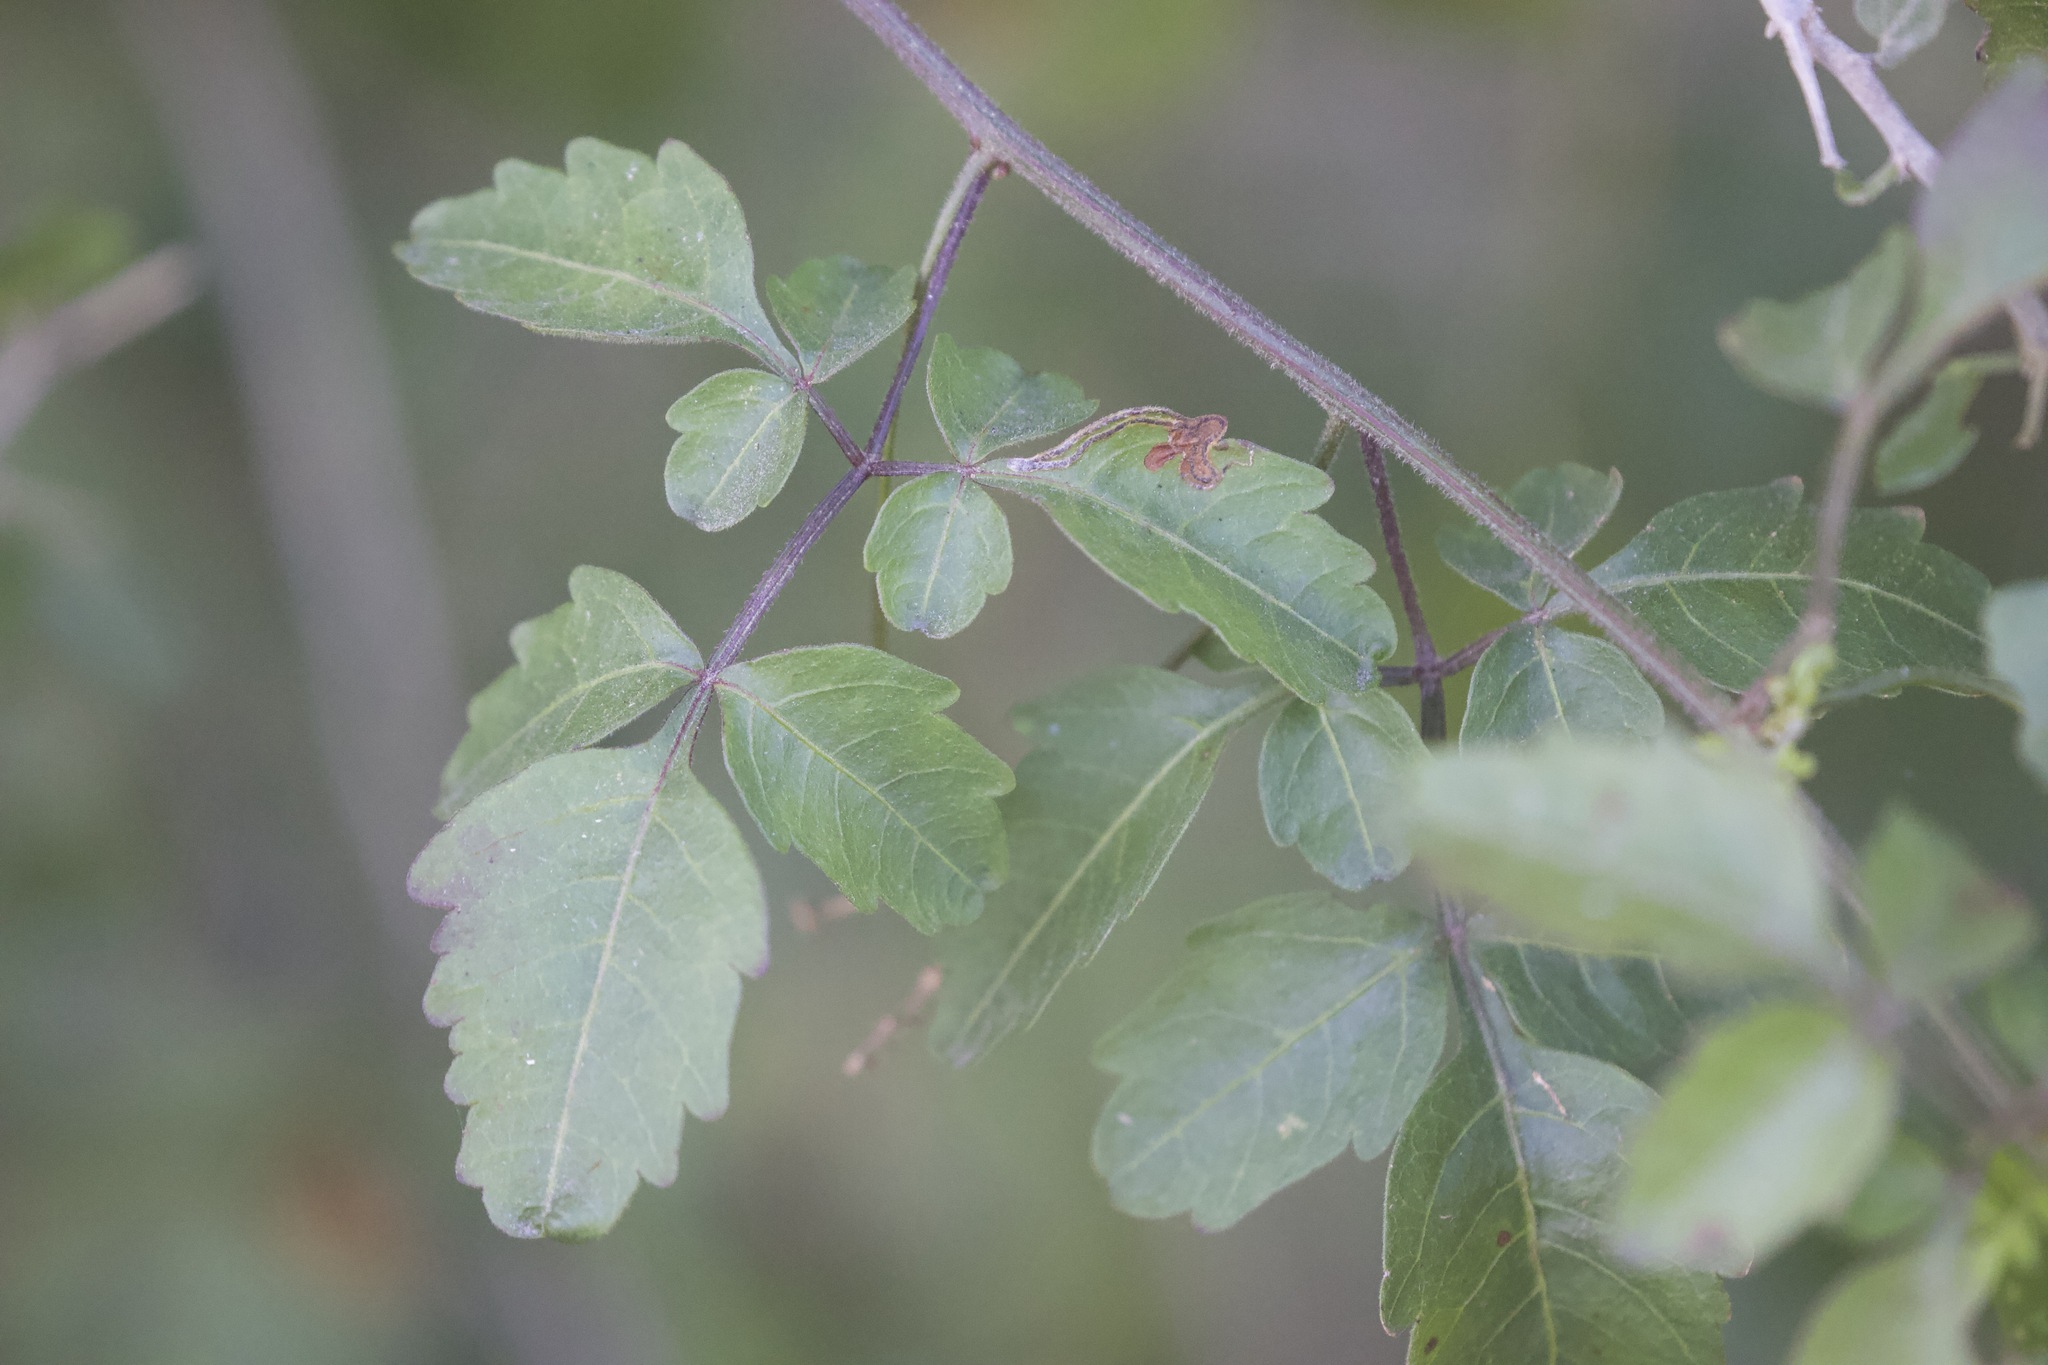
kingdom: Plantae
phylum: Tracheophyta
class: Magnoliopsida
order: Sapindales
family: Sapindaceae
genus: Serjania
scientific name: Serjania brachycarpa
